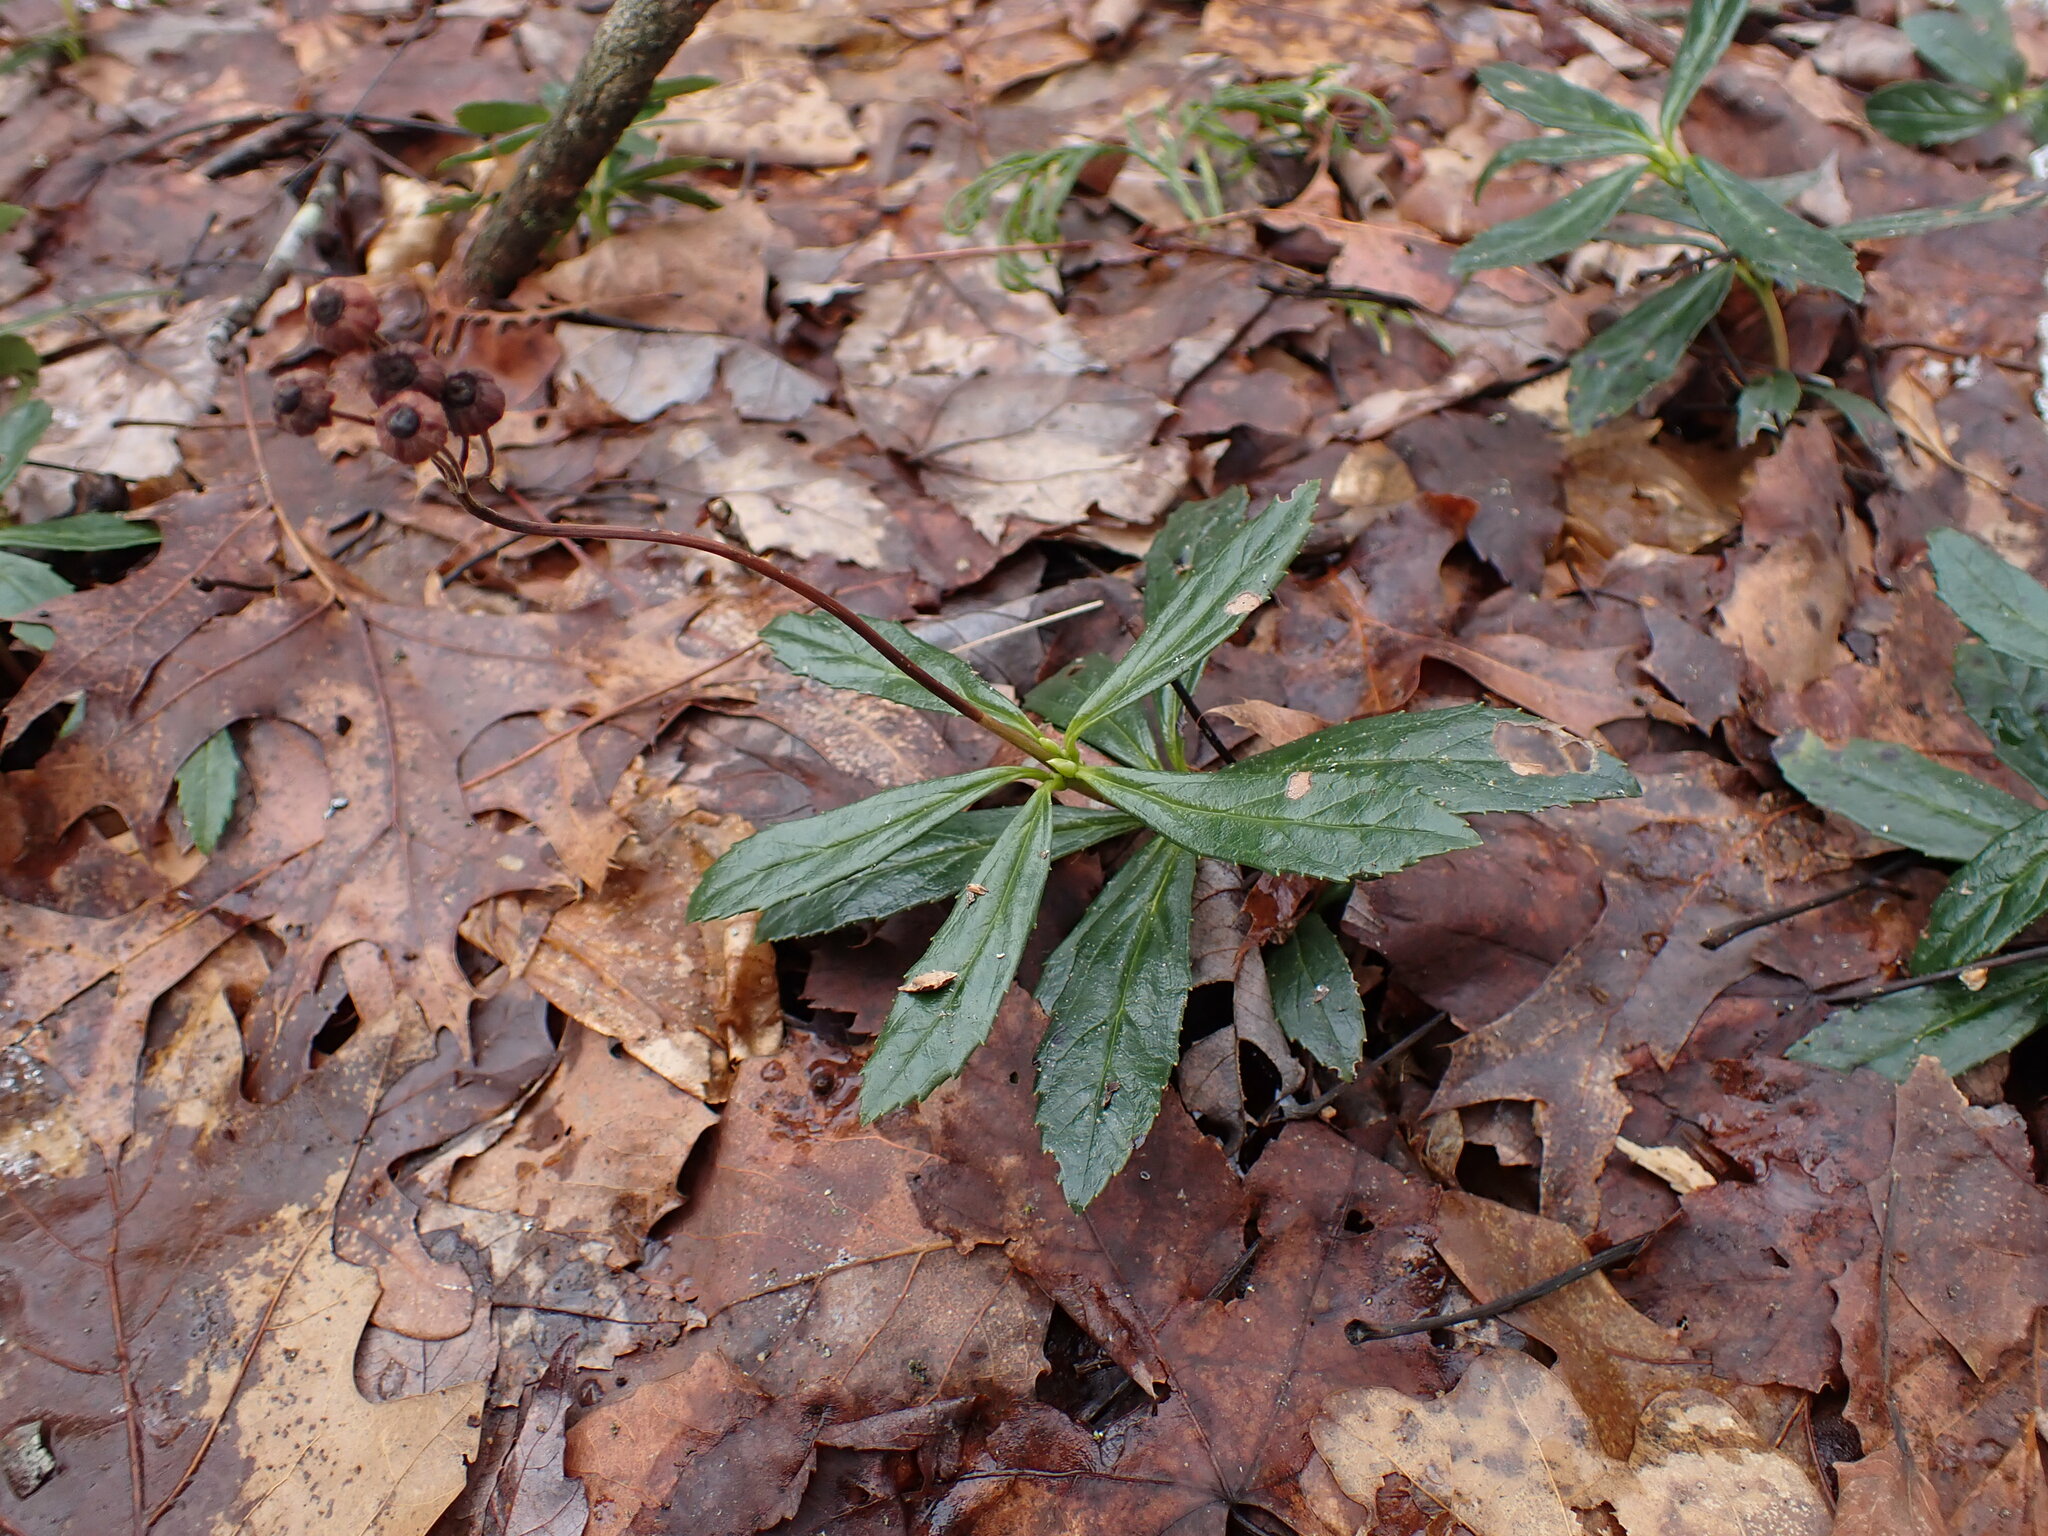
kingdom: Plantae
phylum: Tracheophyta
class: Magnoliopsida
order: Ericales
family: Ericaceae
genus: Chimaphila
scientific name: Chimaphila umbellata
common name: Pipsissewa
